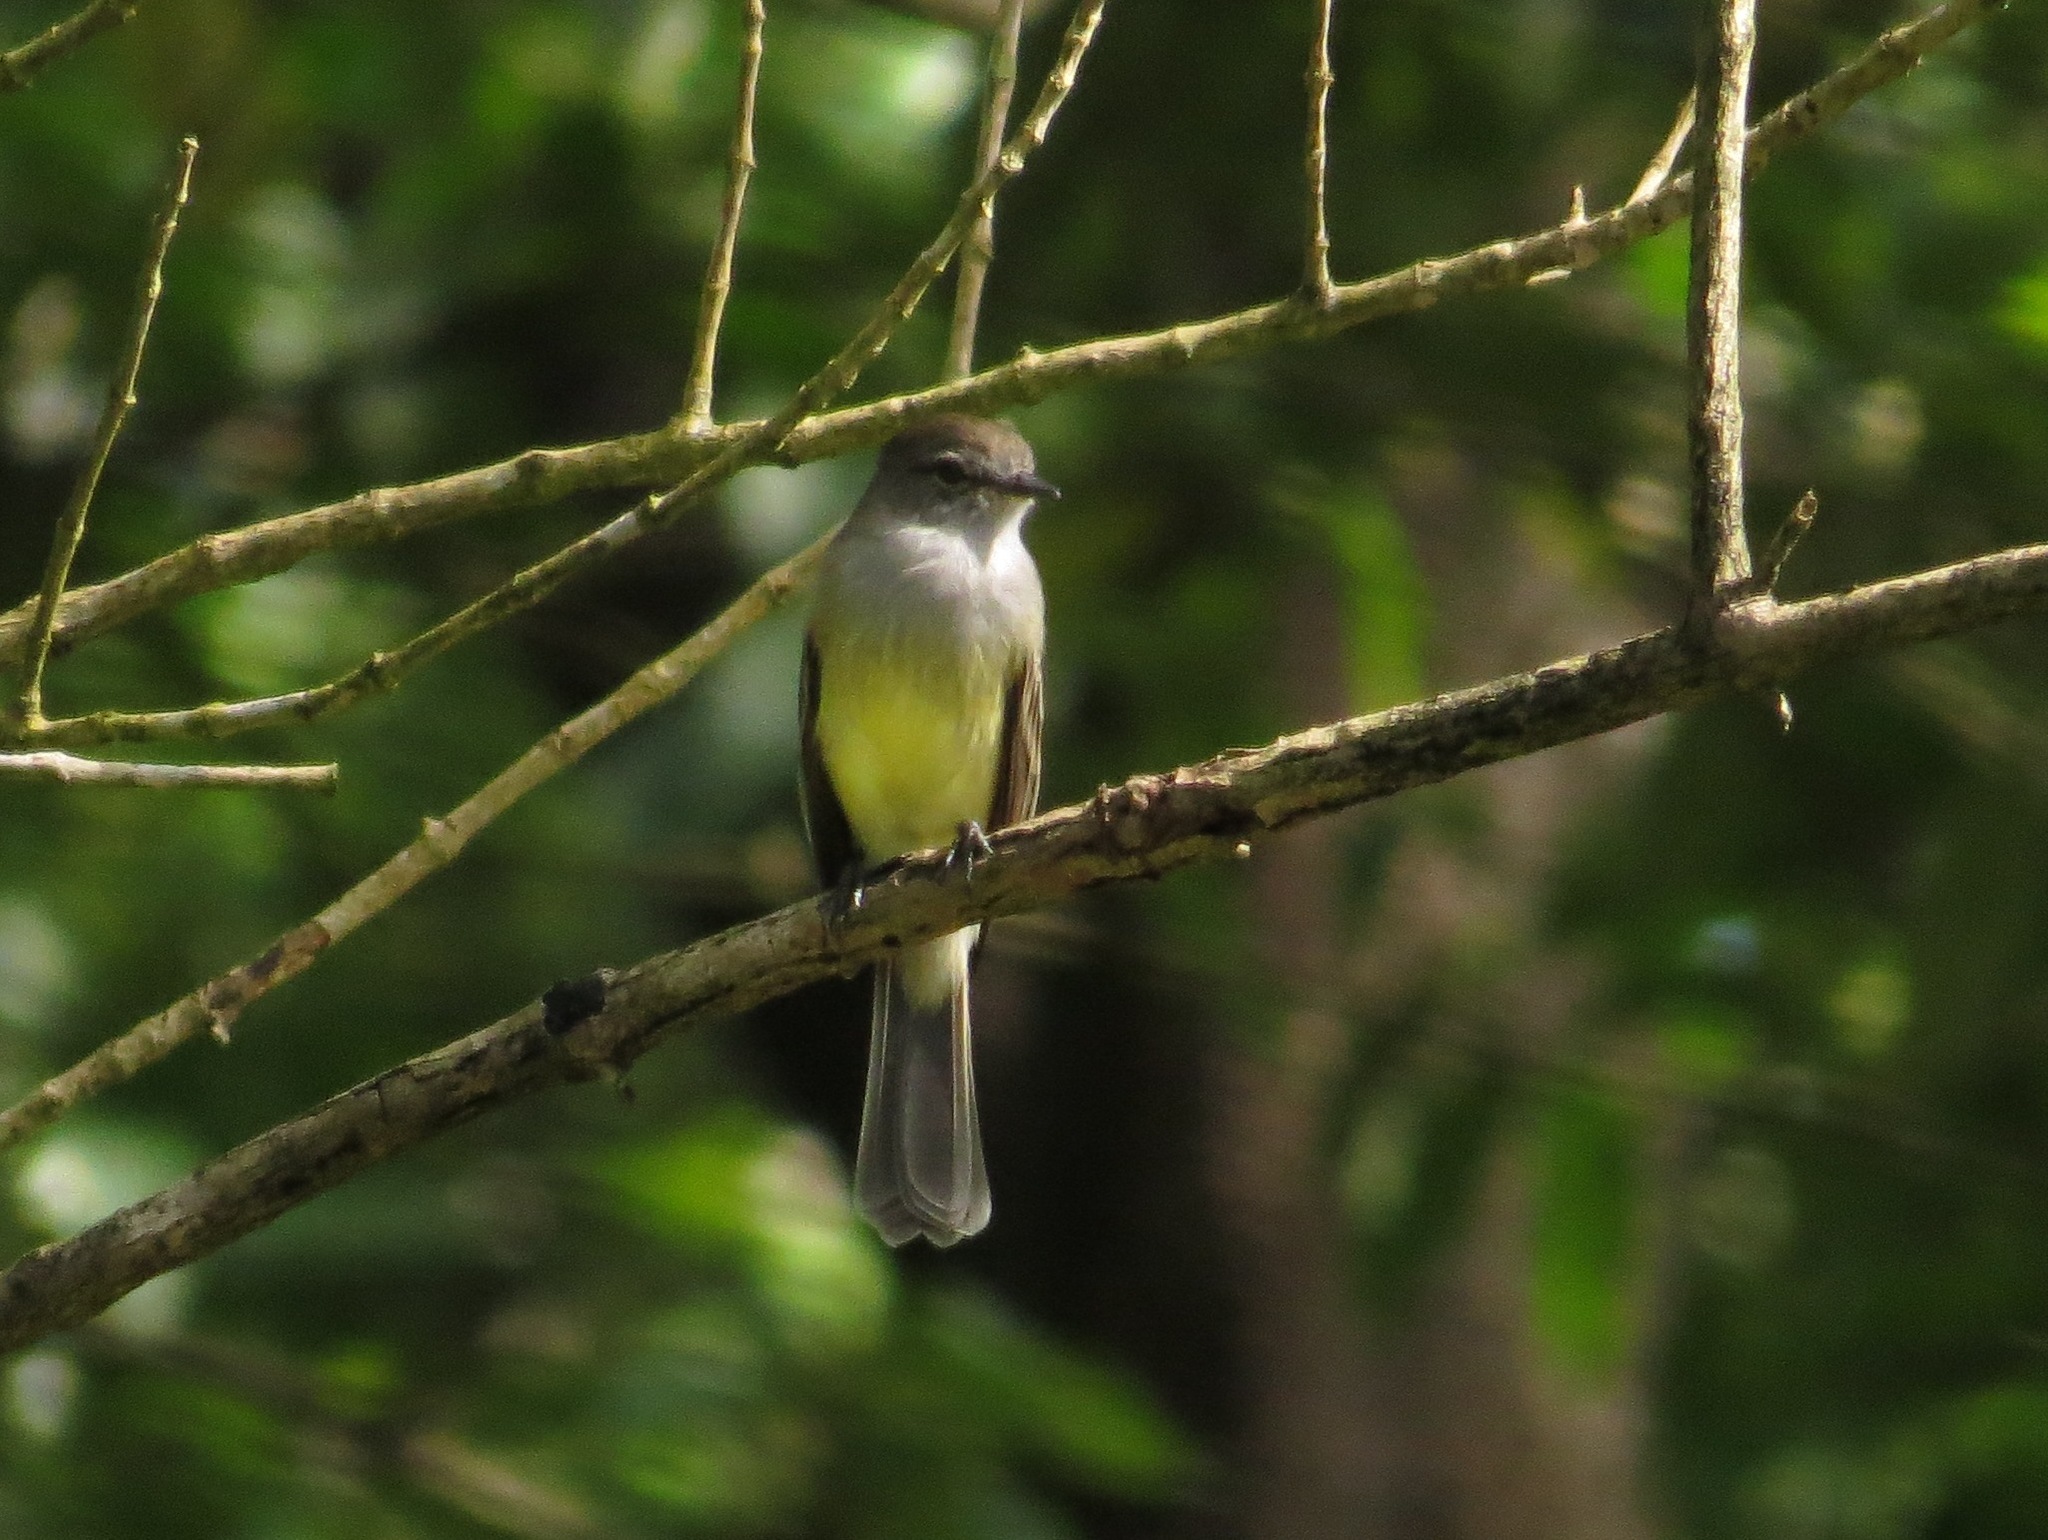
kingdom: Animalia
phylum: Chordata
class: Aves
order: Passeriformes
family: Tyrannidae
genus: Sublegatus
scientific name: Sublegatus arenarum
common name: Northern scrub-flycatcher
